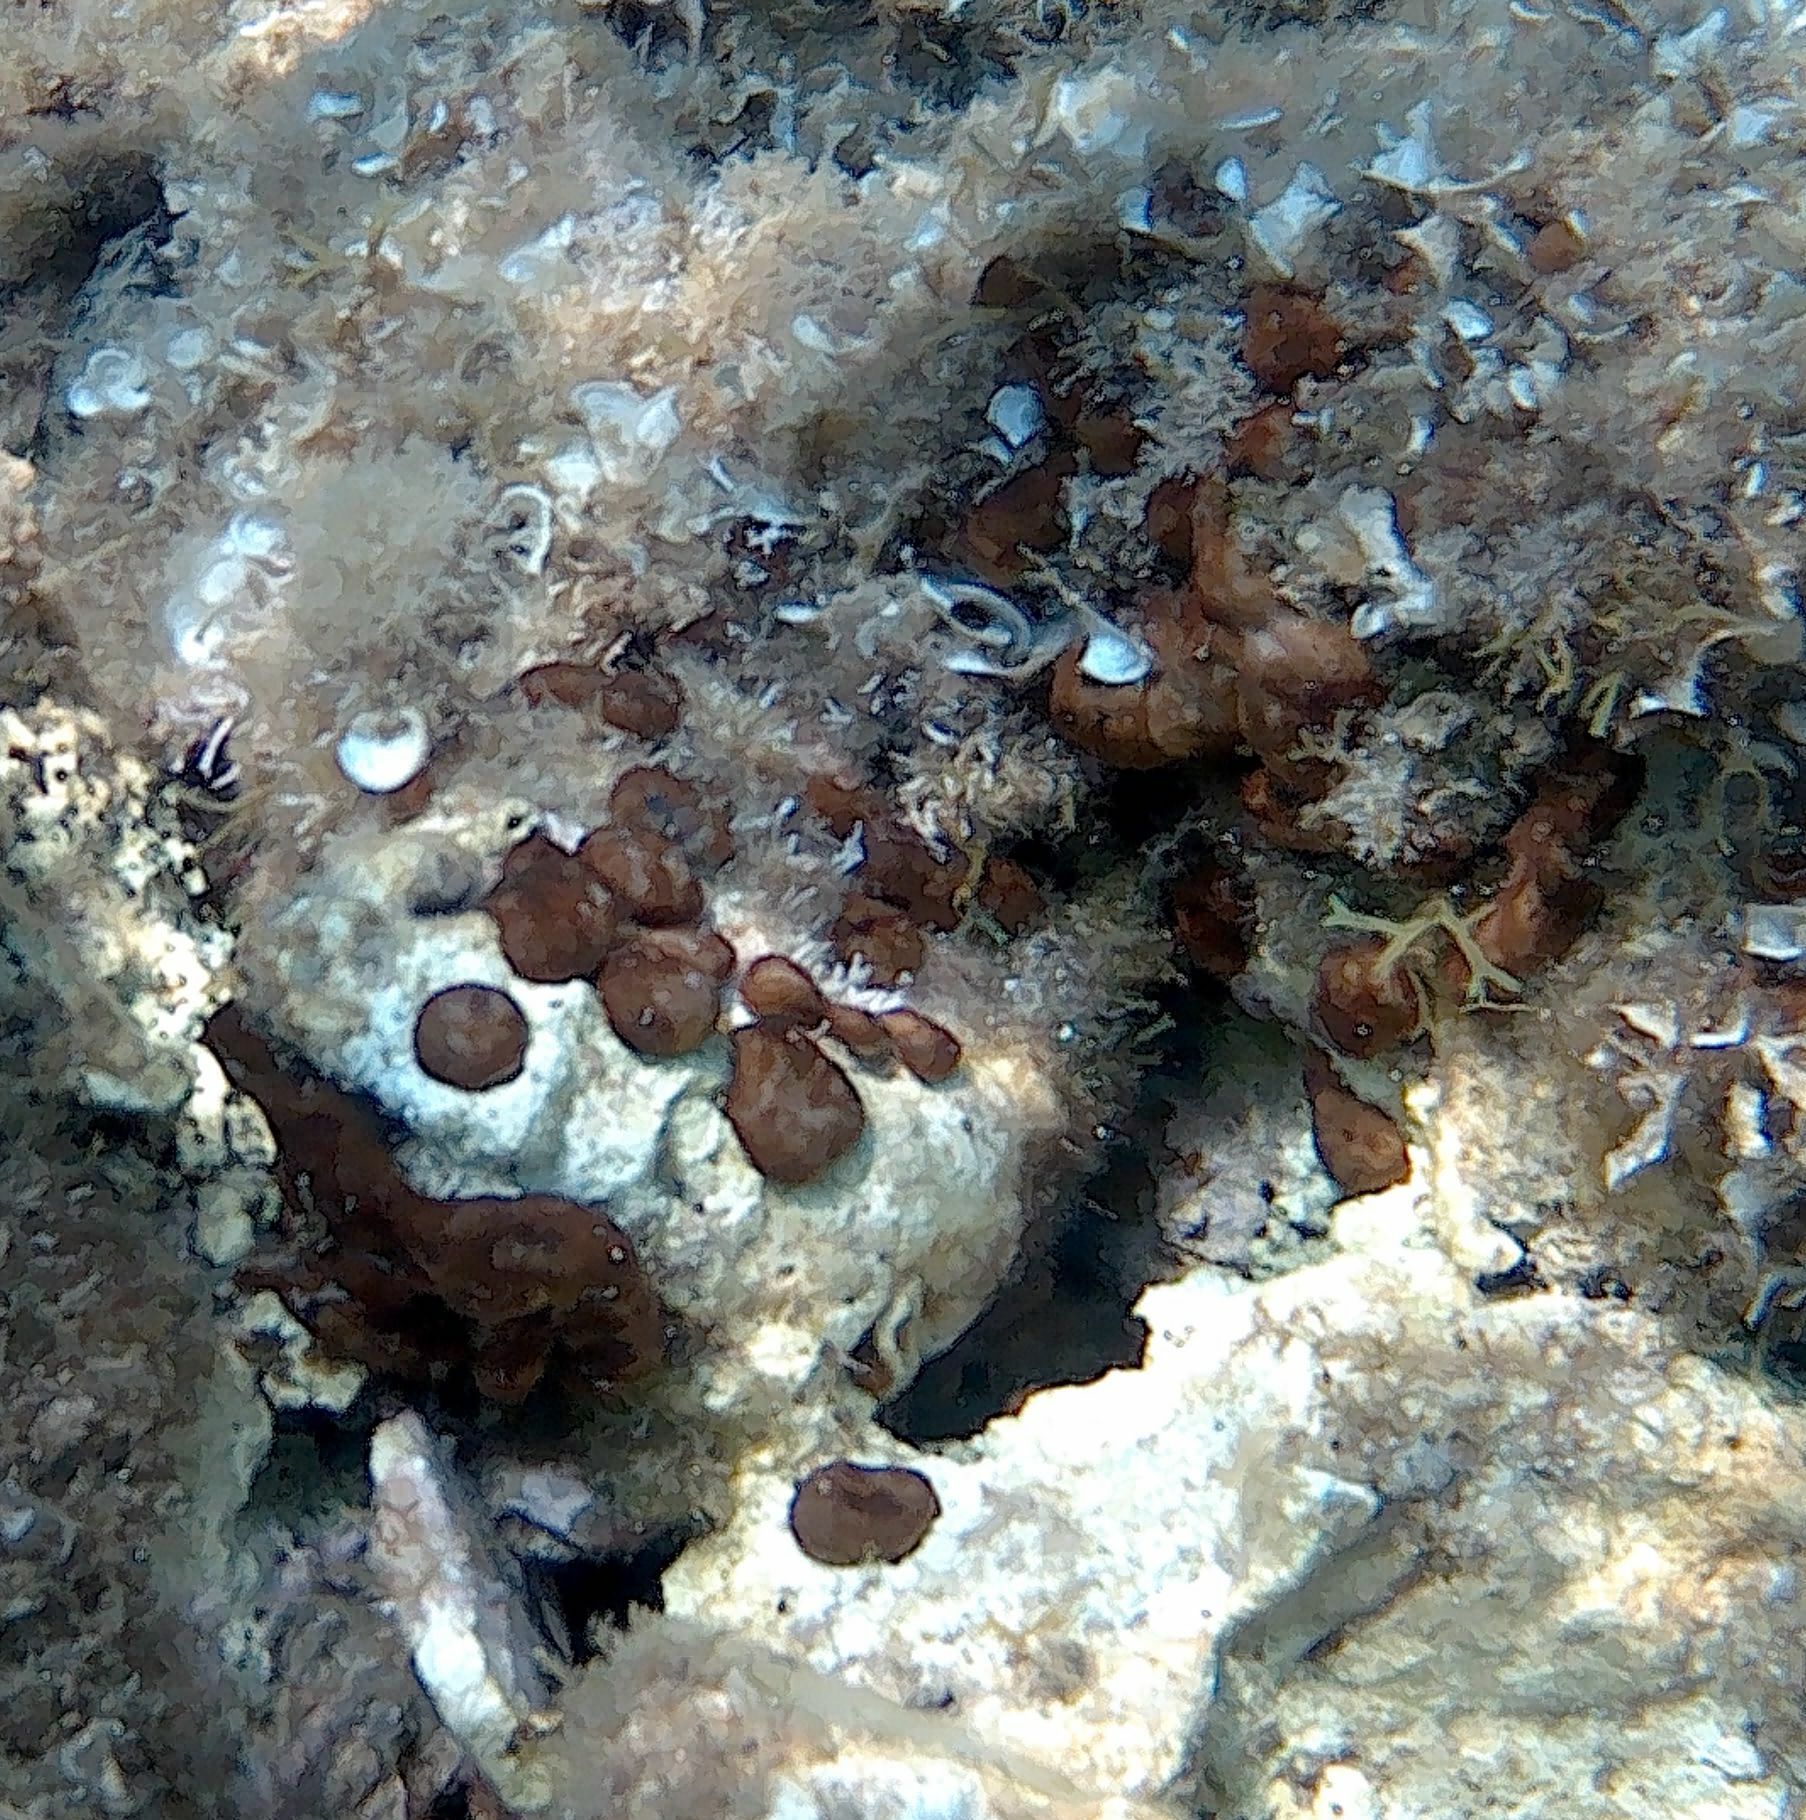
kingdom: Animalia
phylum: Porifera
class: Demospongiae
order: Chondrillida
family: Chondrillidae
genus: Chondrilla
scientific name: Chondrilla nucula
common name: Chicken liver sponge
